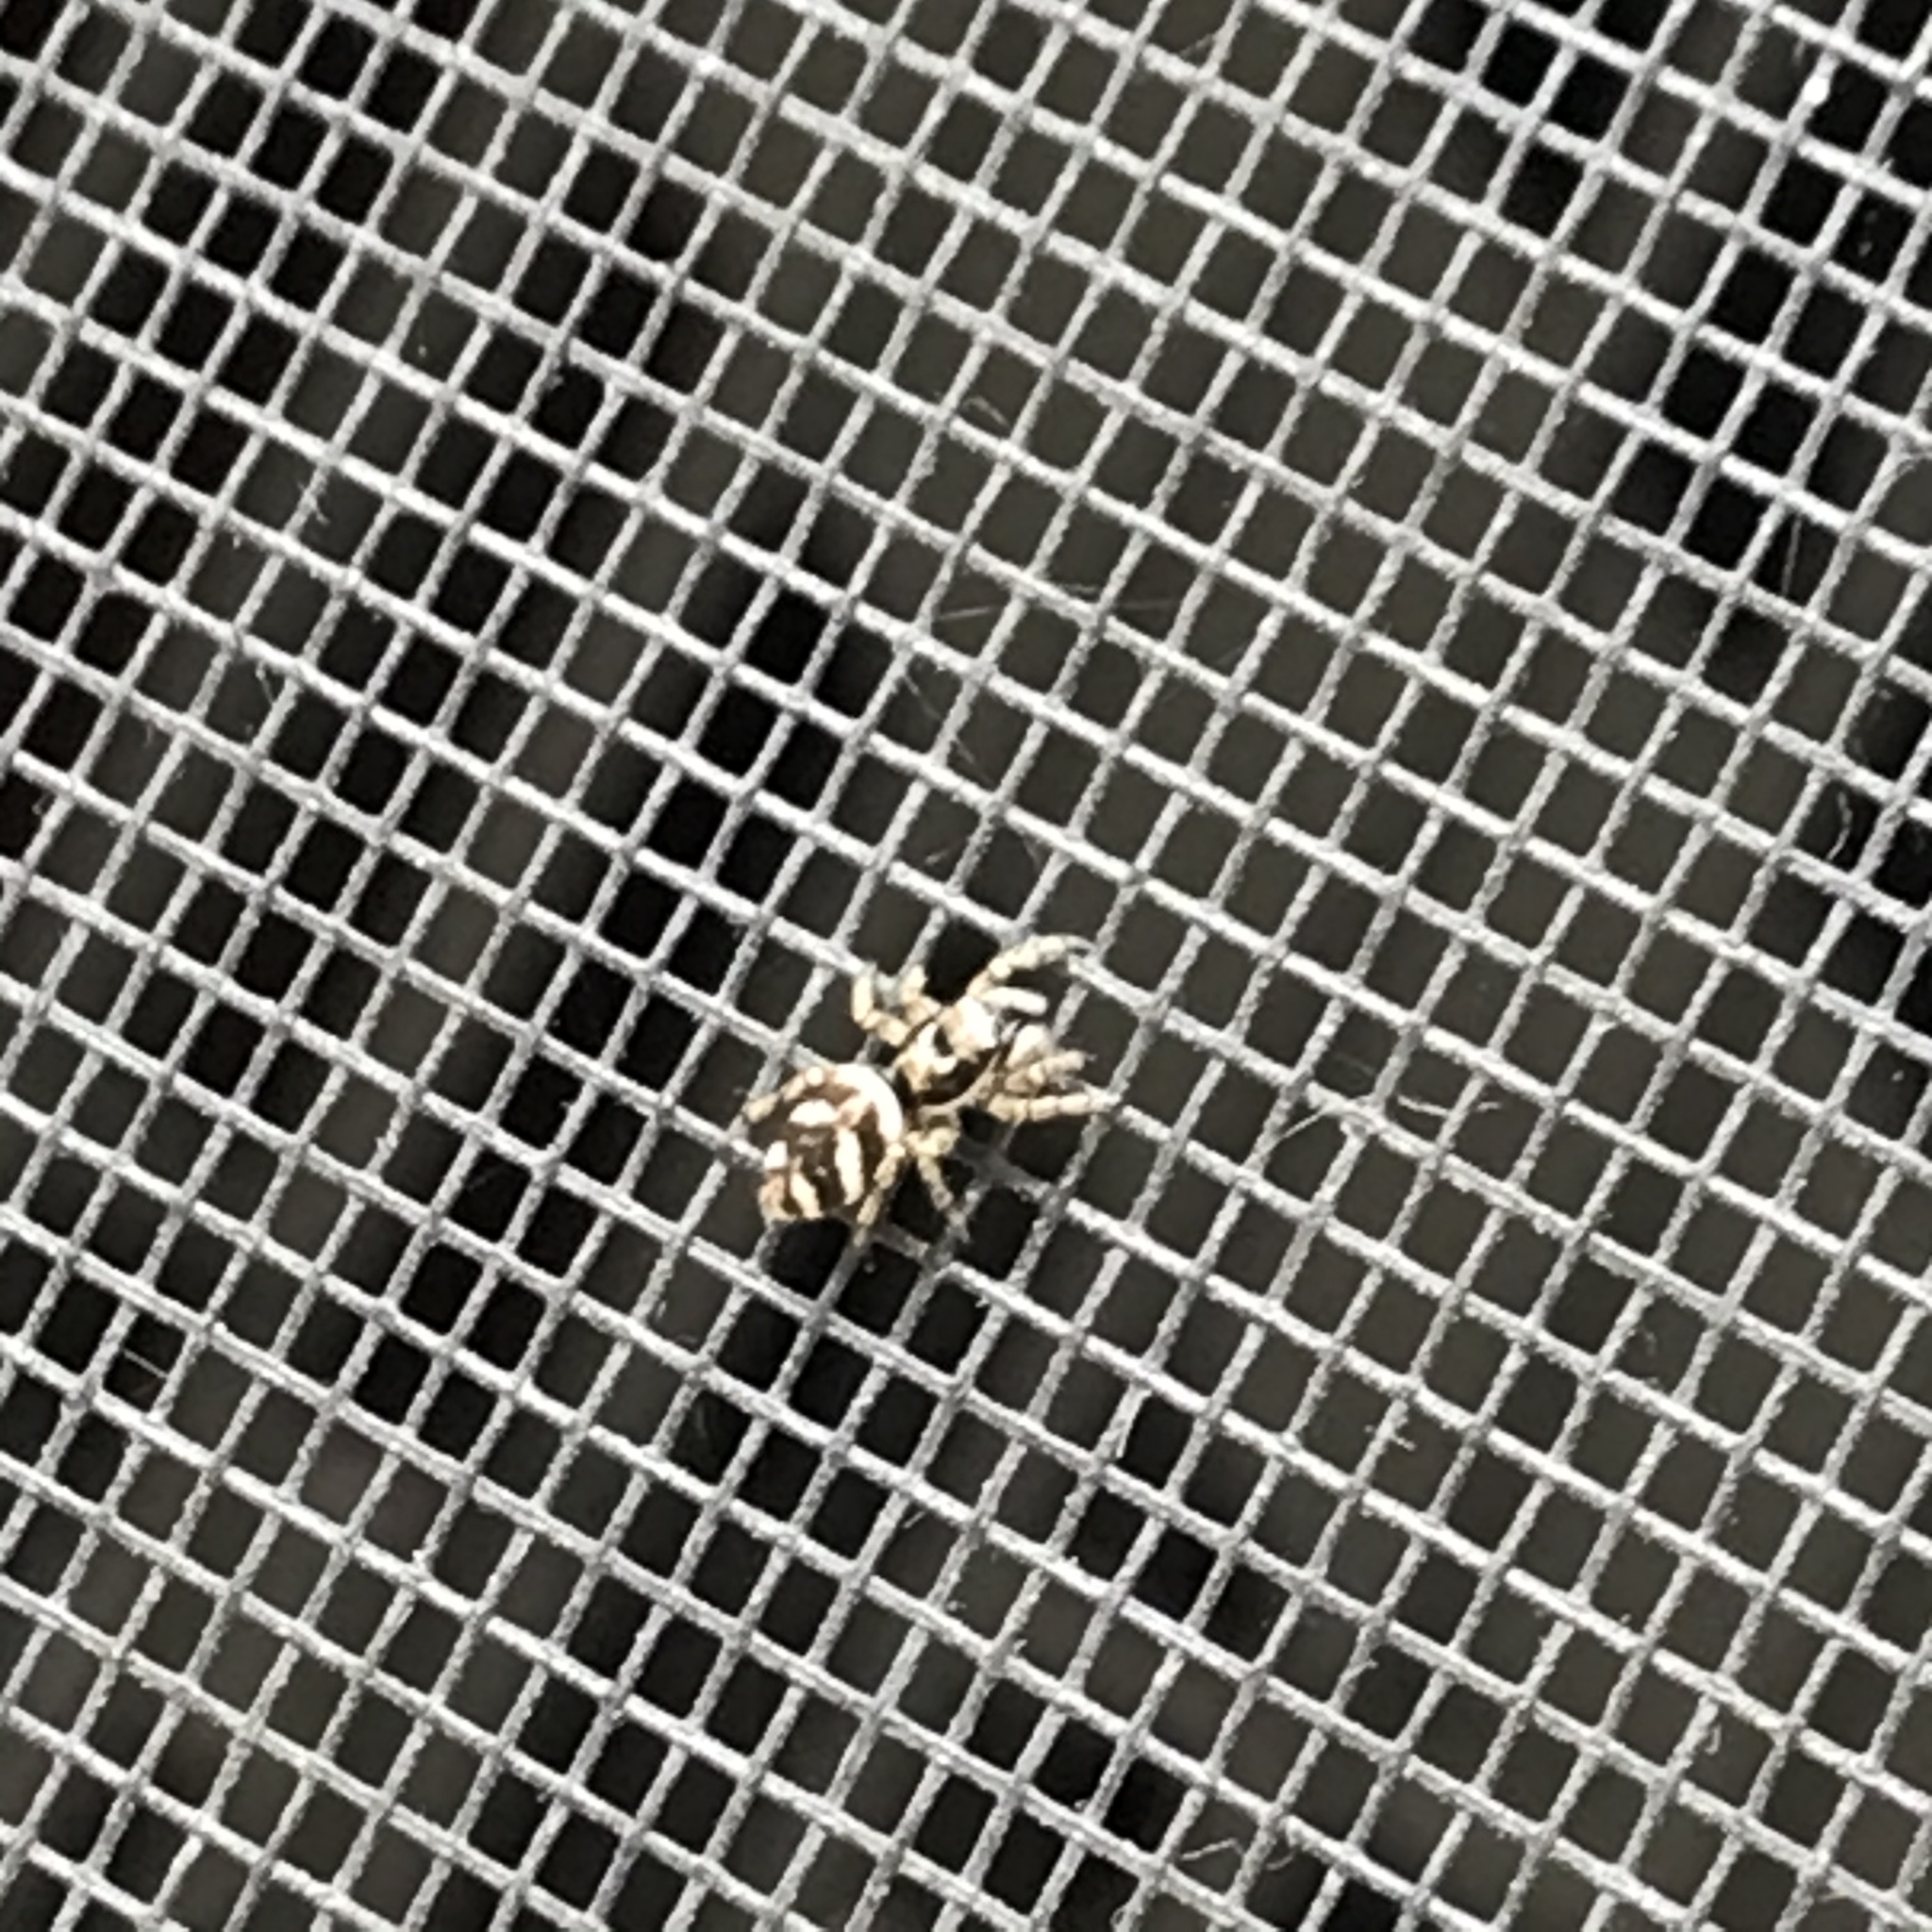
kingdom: Animalia
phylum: Arthropoda
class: Arachnida
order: Araneae
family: Salticidae
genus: Salticus
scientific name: Salticus scenicus
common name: Zebra jumper
